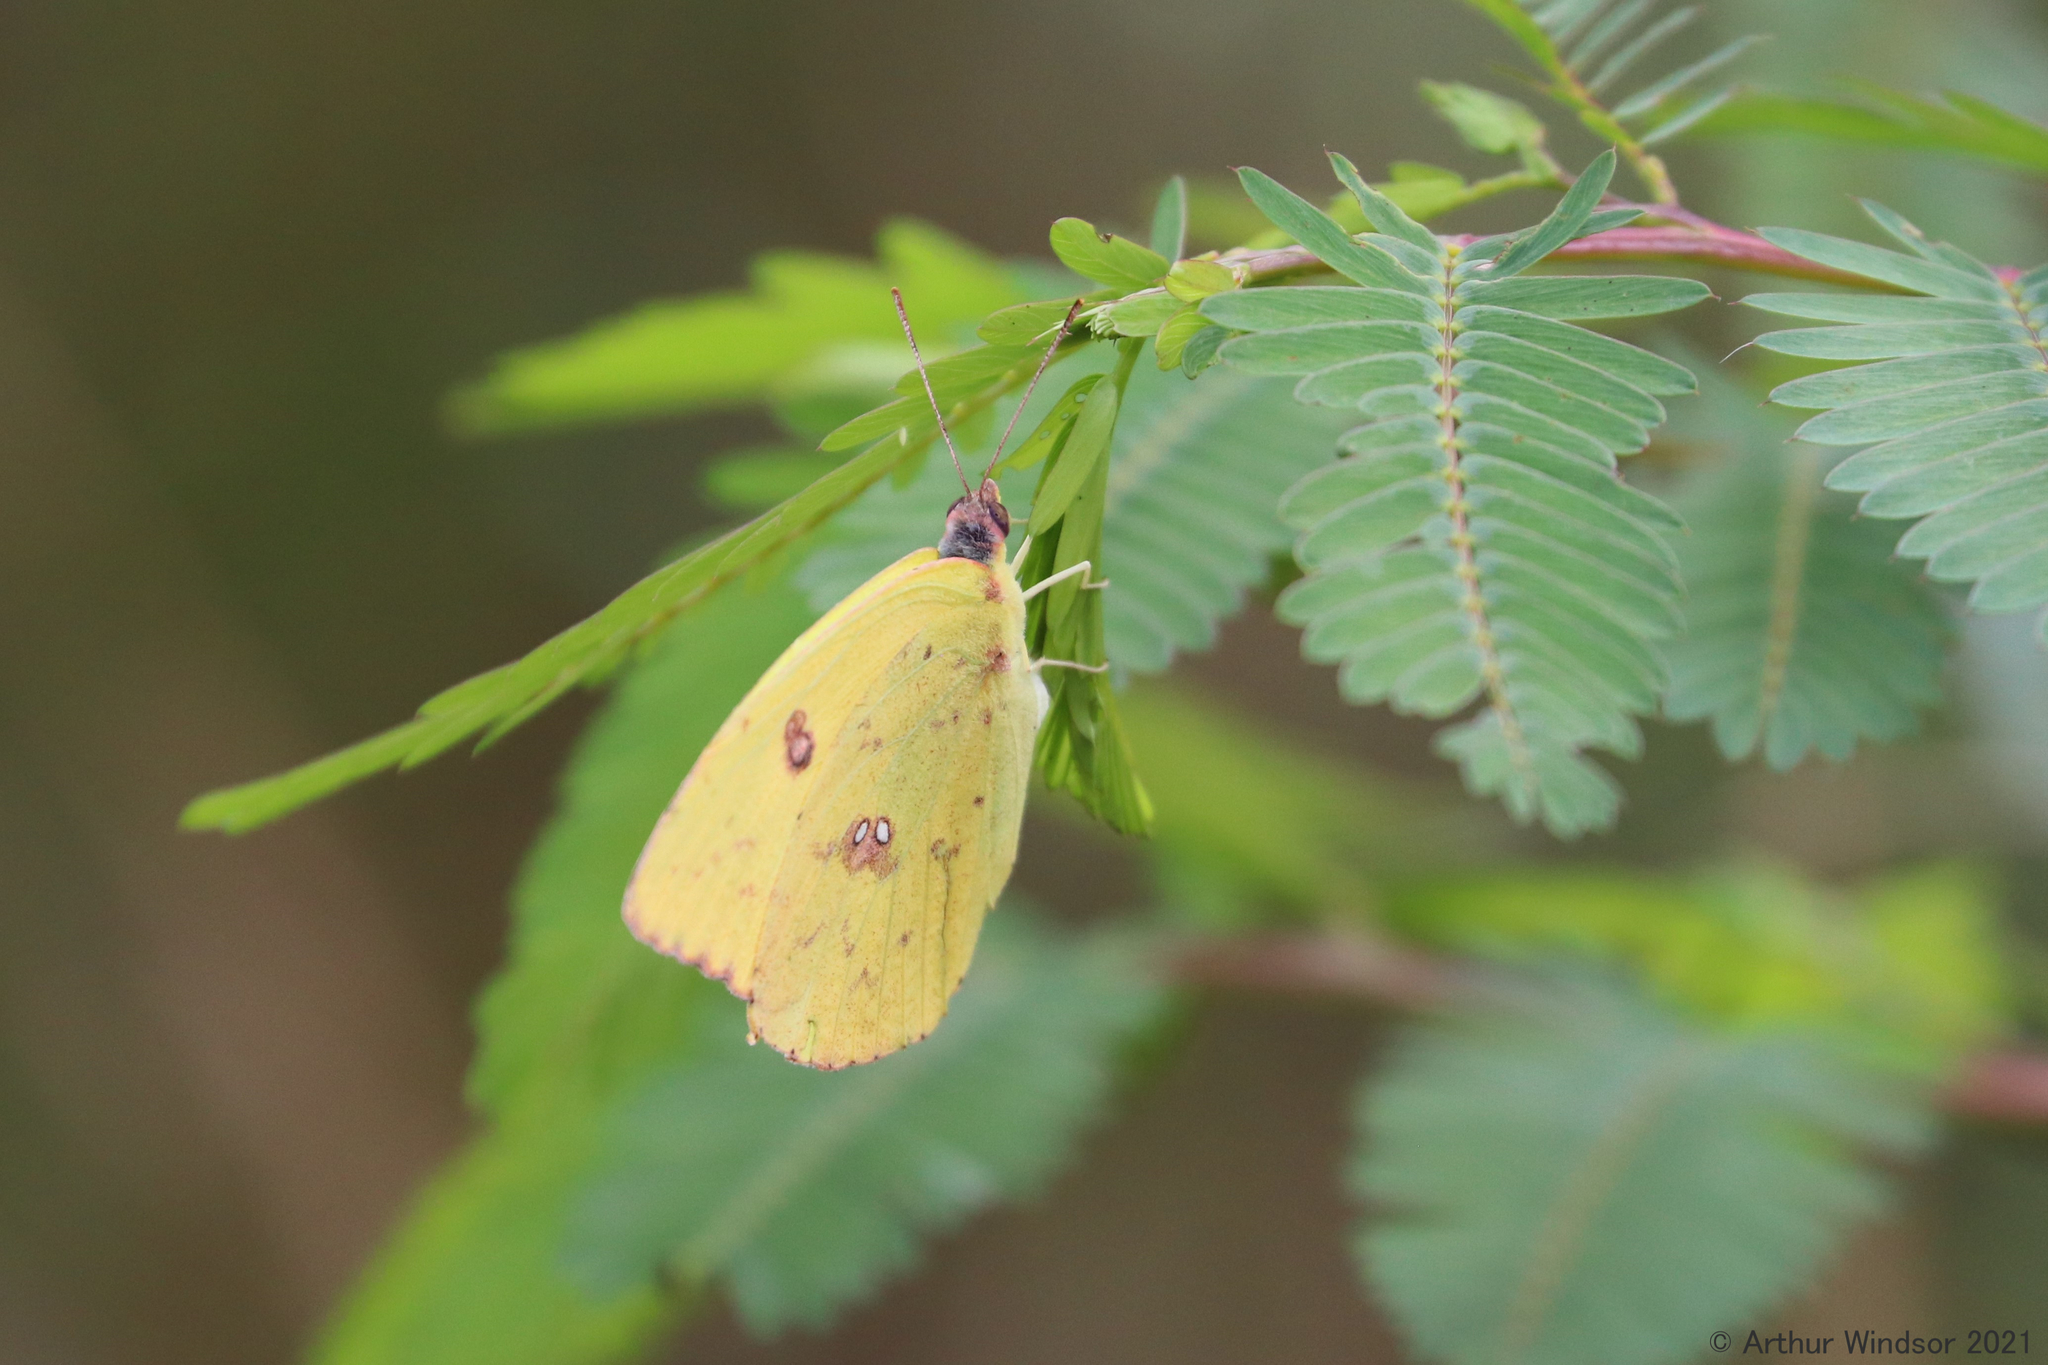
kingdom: Animalia
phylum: Arthropoda
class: Insecta
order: Lepidoptera
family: Pieridae
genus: Phoebis
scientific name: Phoebis sennae
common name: Cloudless sulphur
